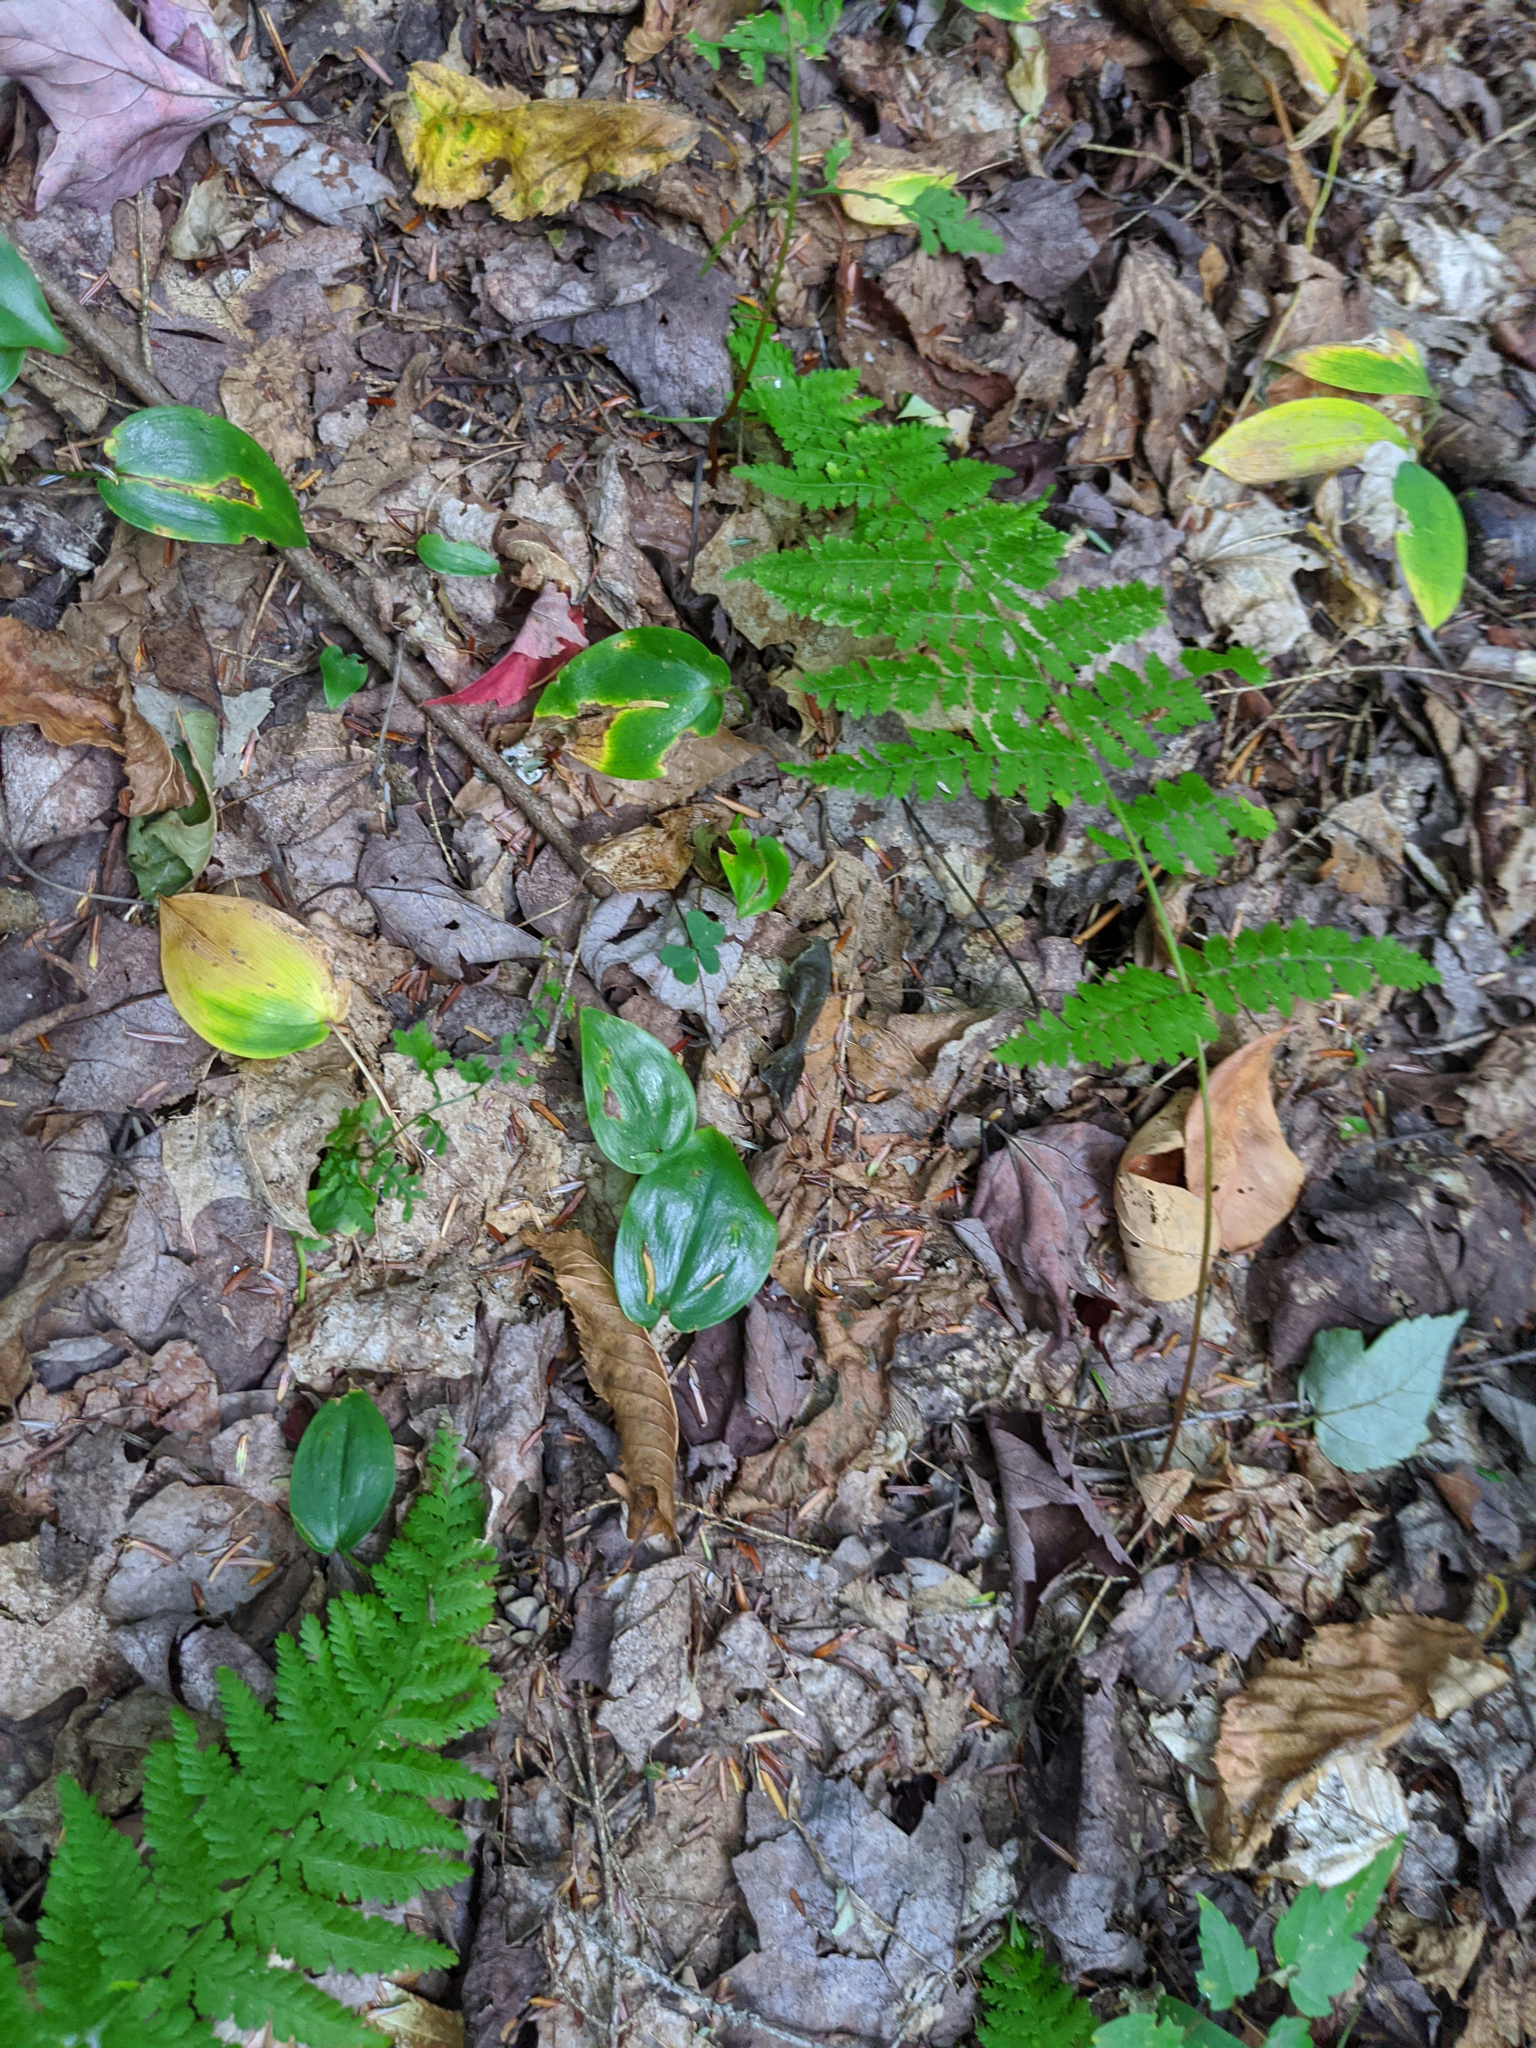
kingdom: Plantae
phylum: Tracheophyta
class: Liliopsida
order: Asparagales
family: Asparagaceae
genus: Maianthemum
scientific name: Maianthemum canadense
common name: False lily-of-the-valley
